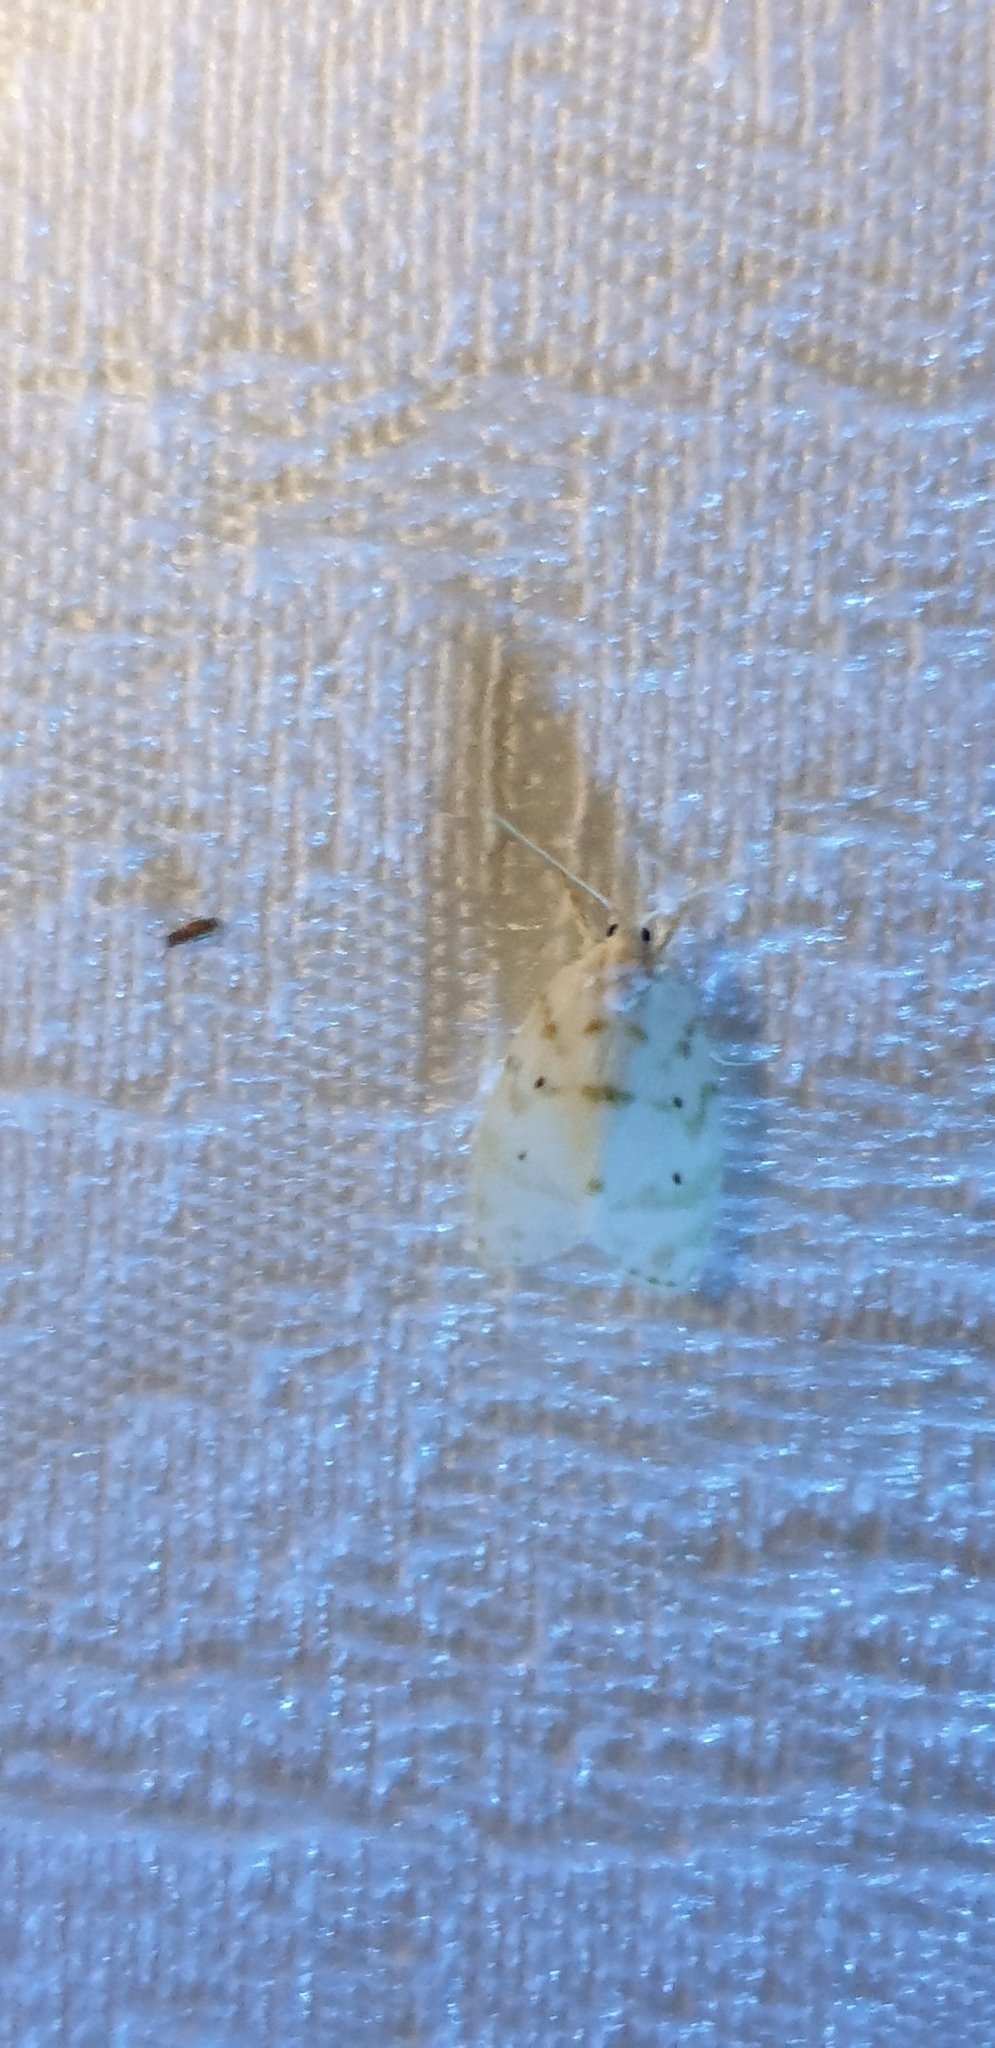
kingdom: Animalia
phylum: Arthropoda
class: Insecta
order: Lepidoptera
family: Erebidae
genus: Schistophleps
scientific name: Schistophleps albida
